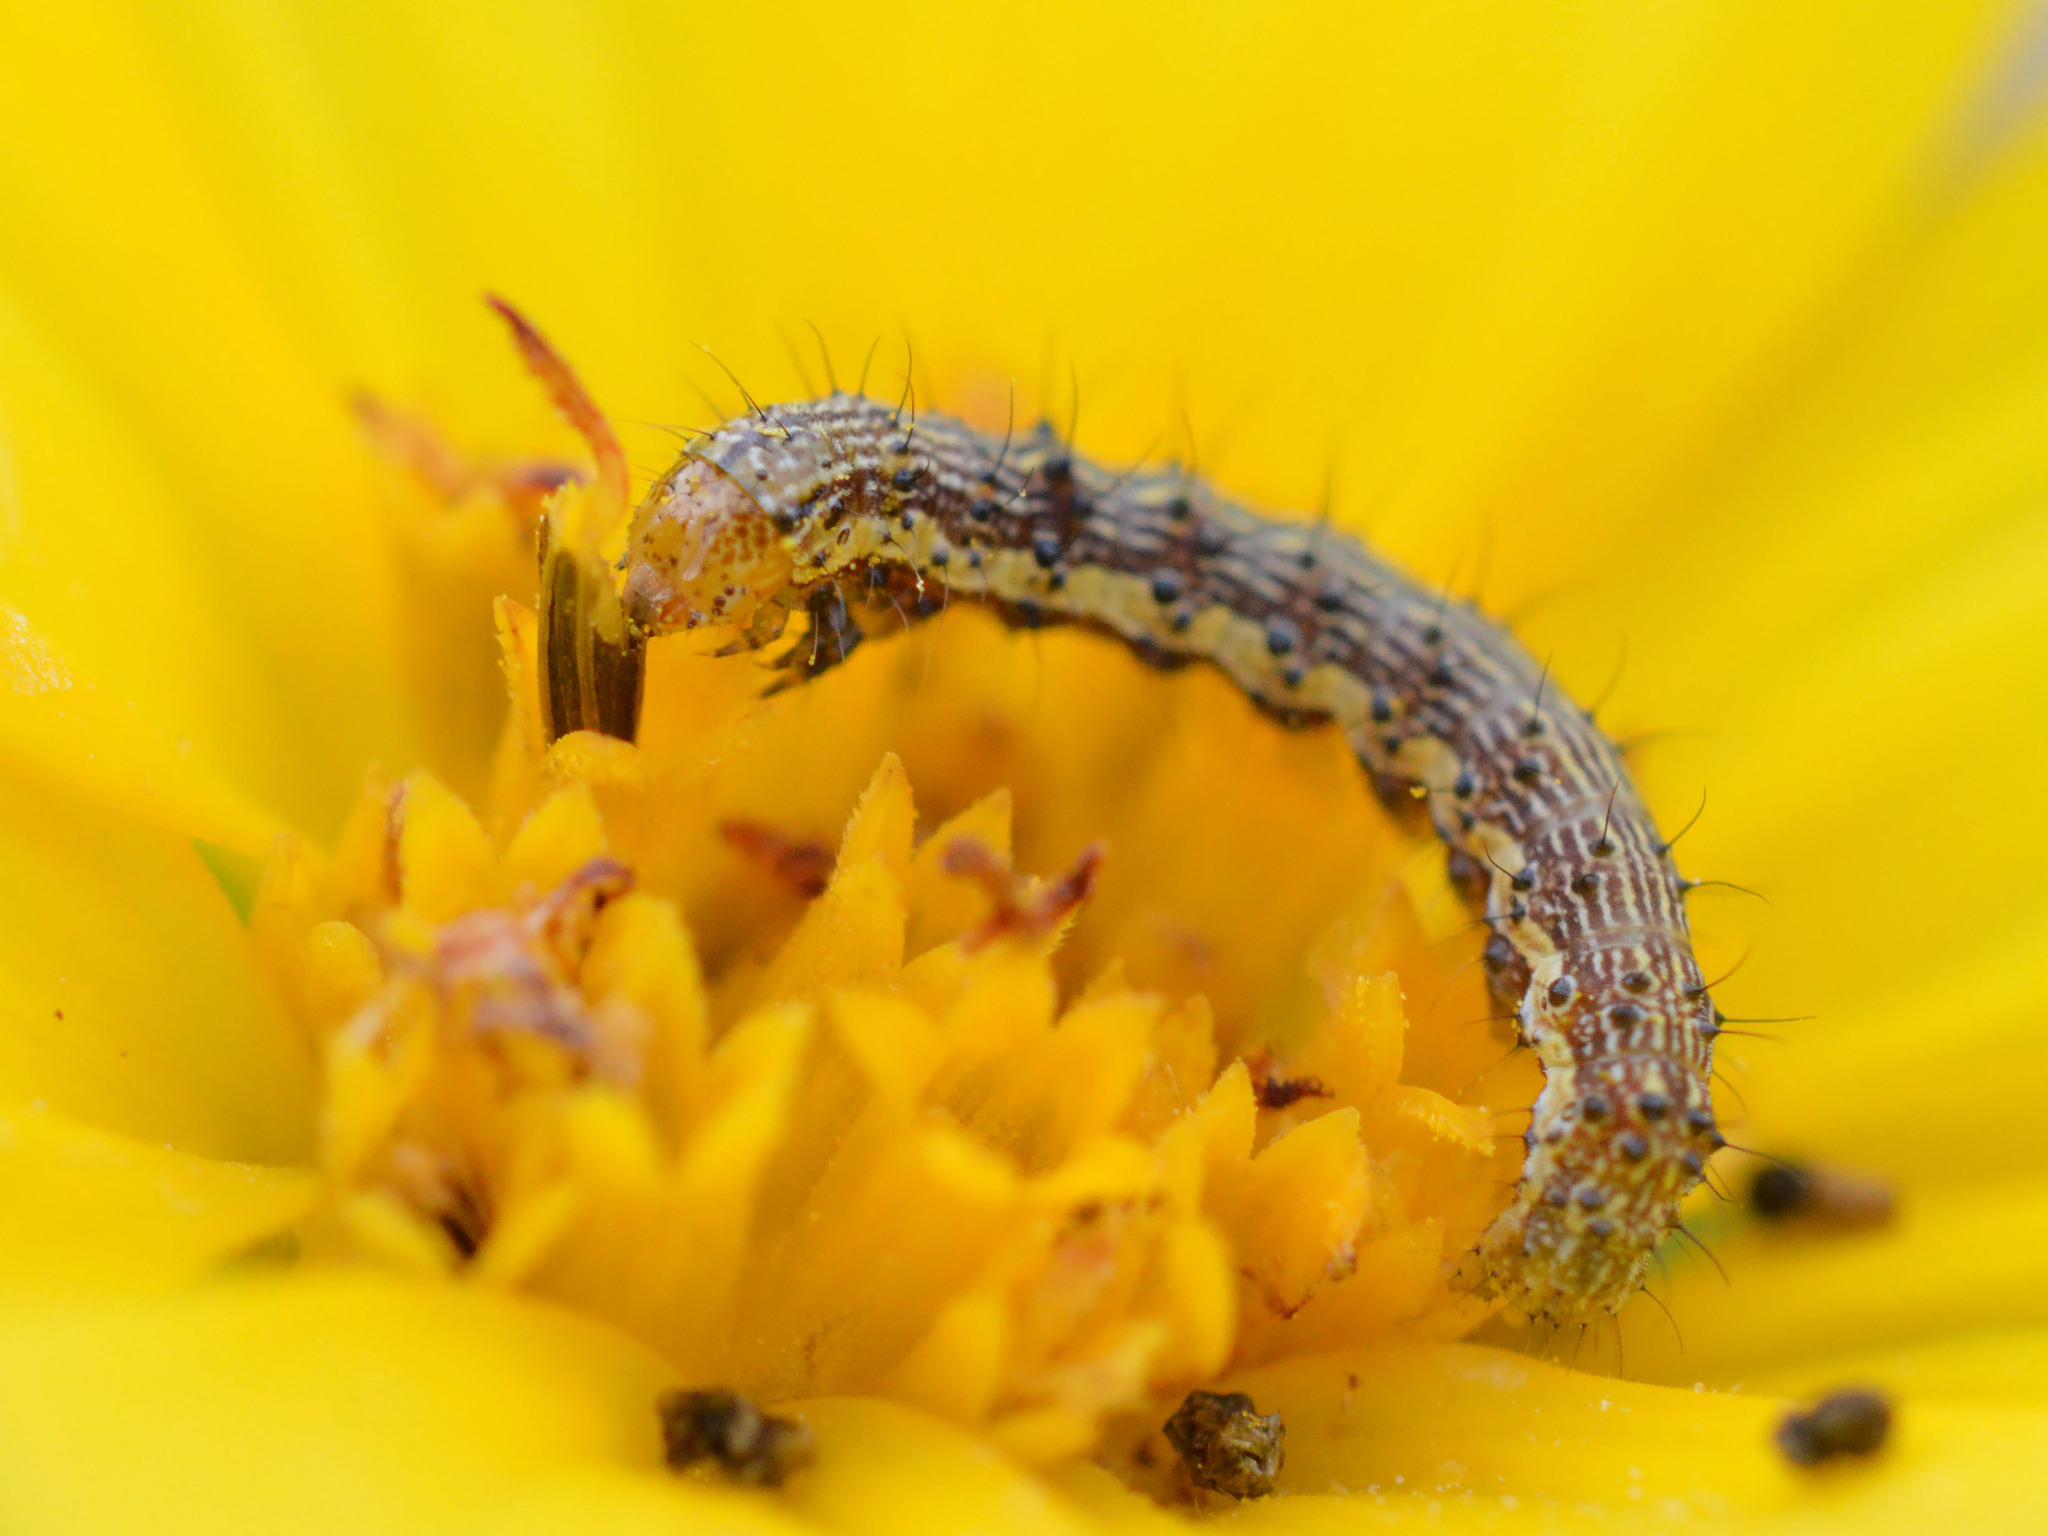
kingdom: Animalia
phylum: Arthropoda
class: Insecta
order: Lepidoptera
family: Noctuidae
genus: Helicoverpa
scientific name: Helicoverpa armigera
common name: Cotton bollworm
